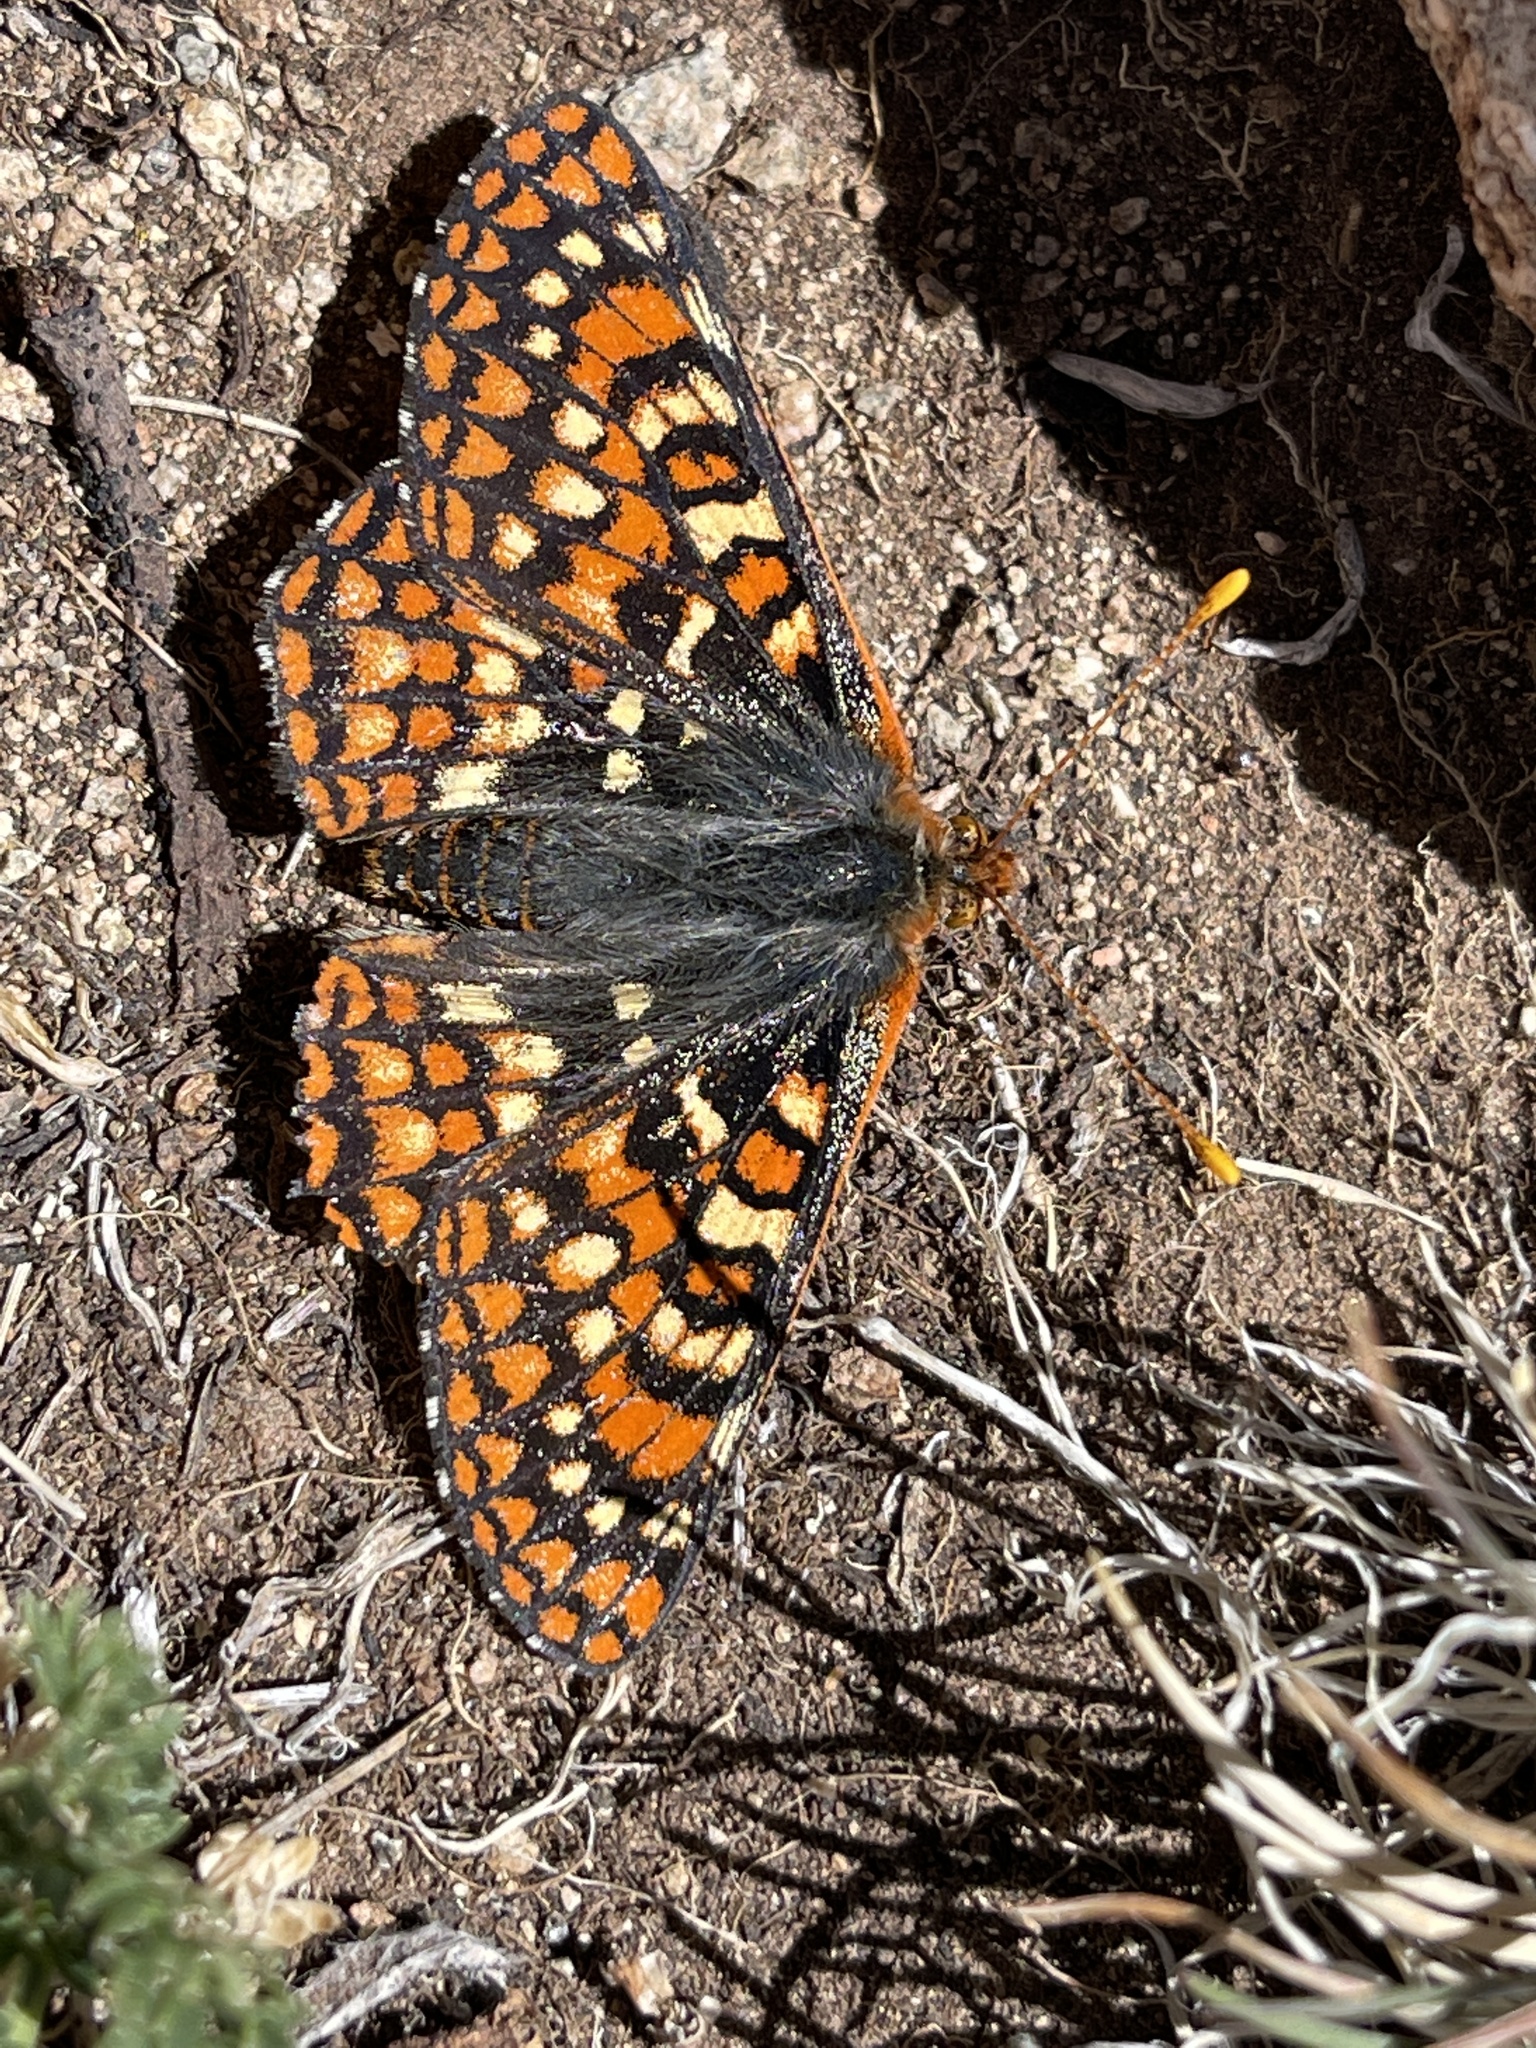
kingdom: Animalia
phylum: Arthropoda
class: Insecta
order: Lepidoptera
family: Nymphalidae
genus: Occidryas
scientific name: Occidryas anicia
